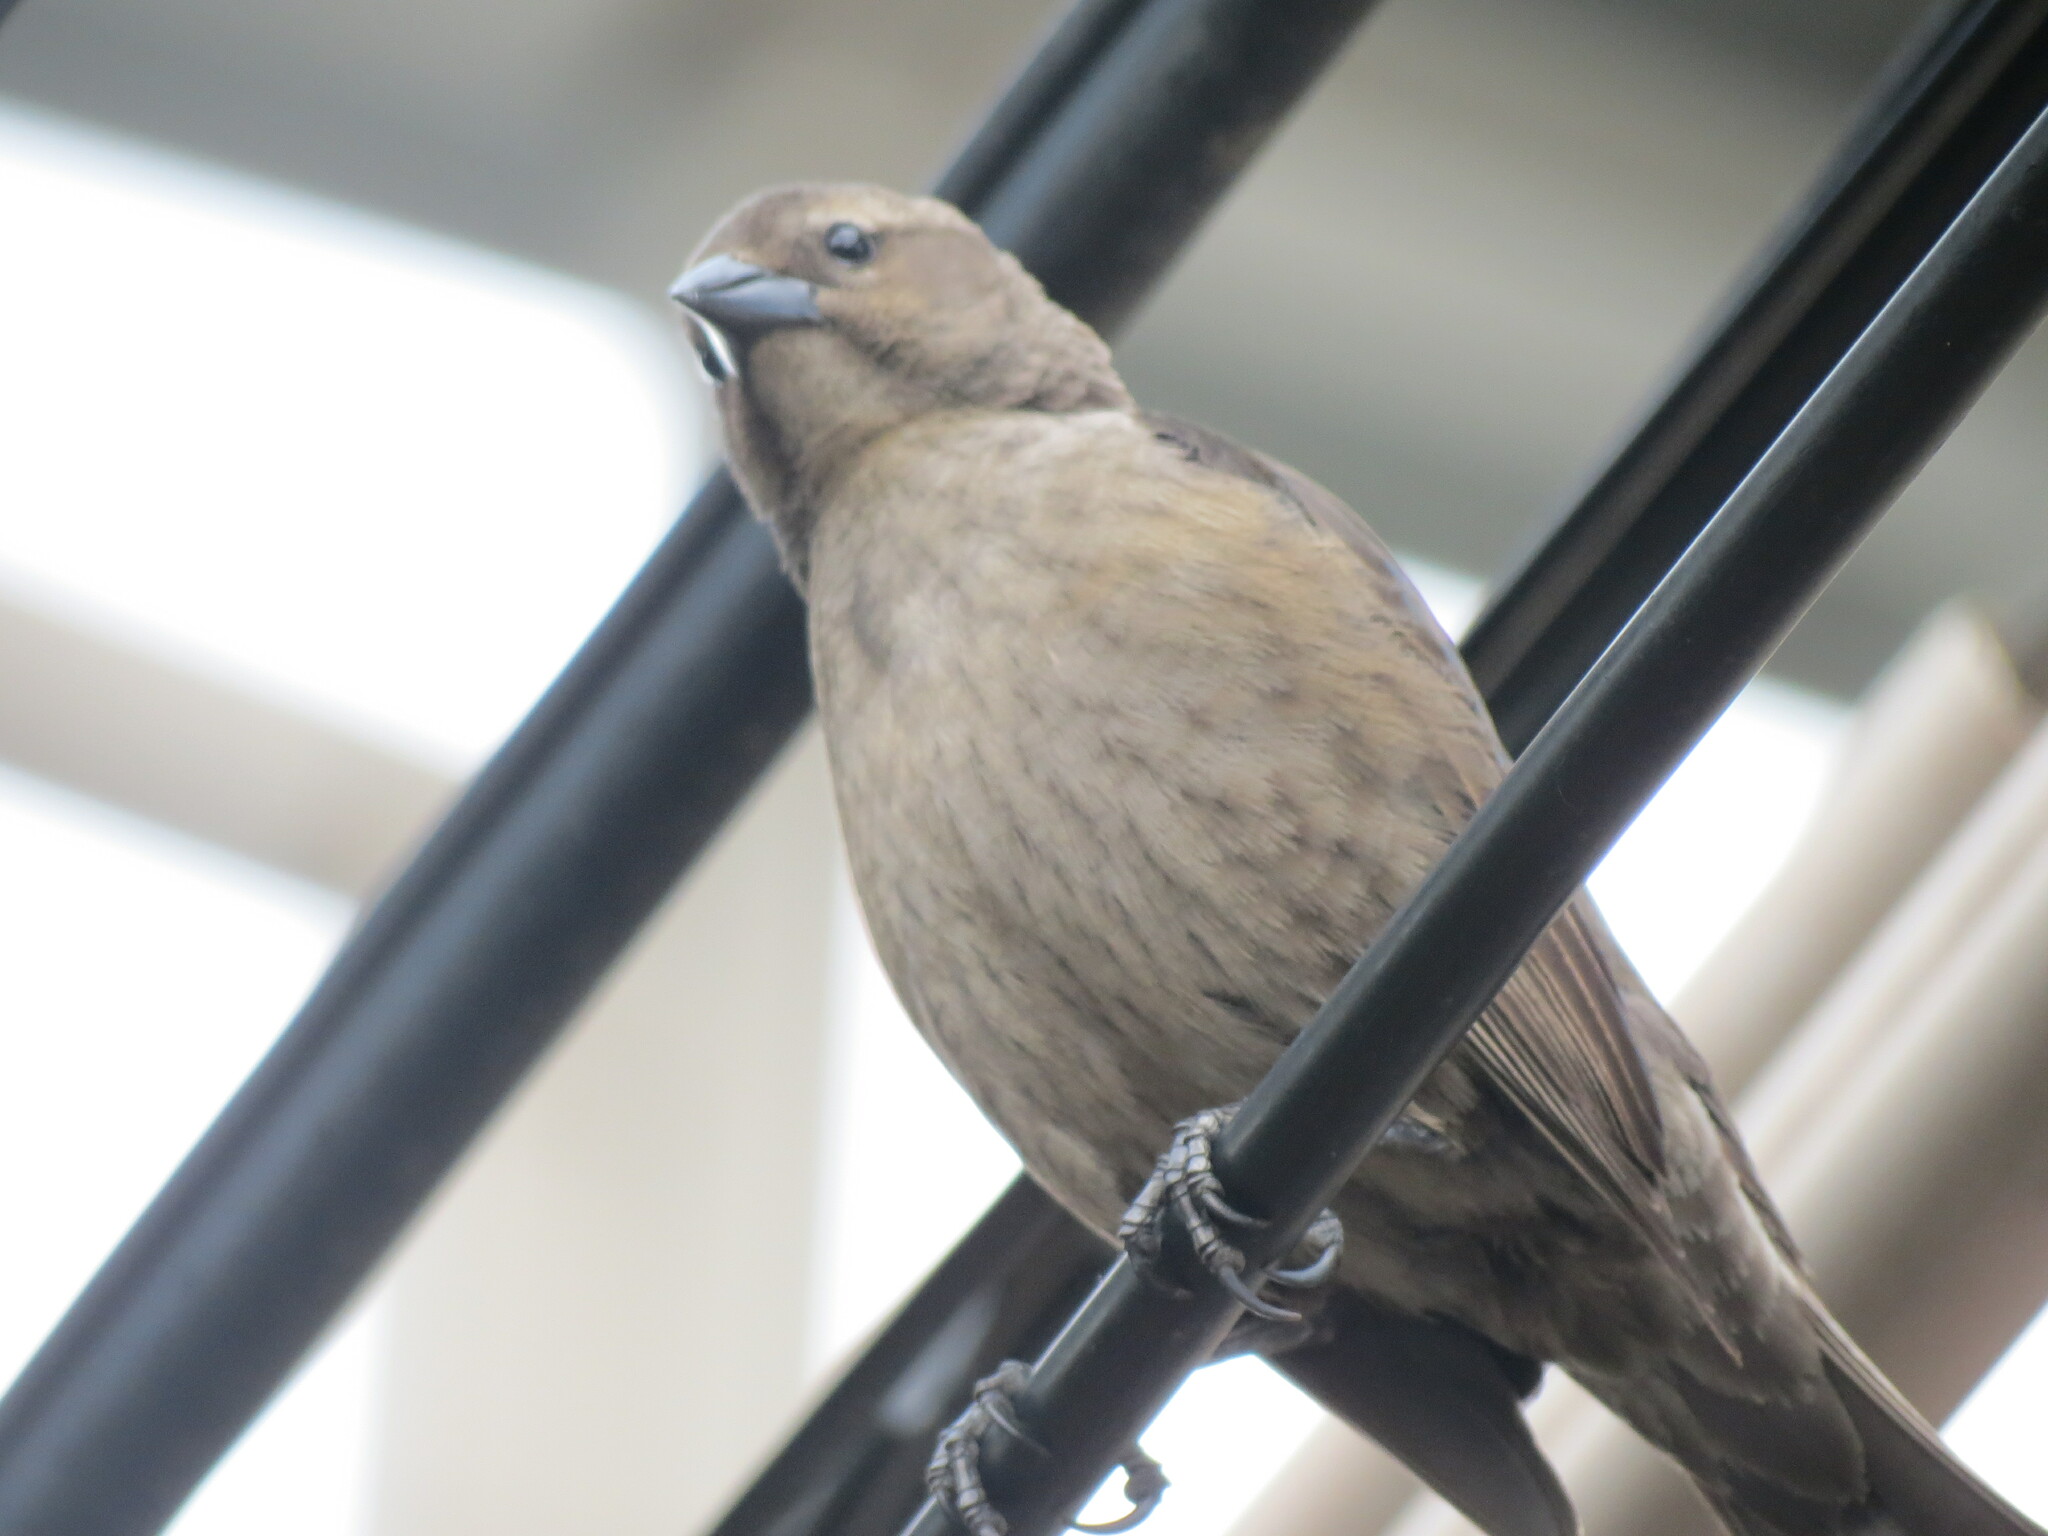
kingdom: Animalia
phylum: Chordata
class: Aves
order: Passeriformes
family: Icteridae
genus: Molothrus
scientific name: Molothrus bonariensis
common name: Shiny cowbird
